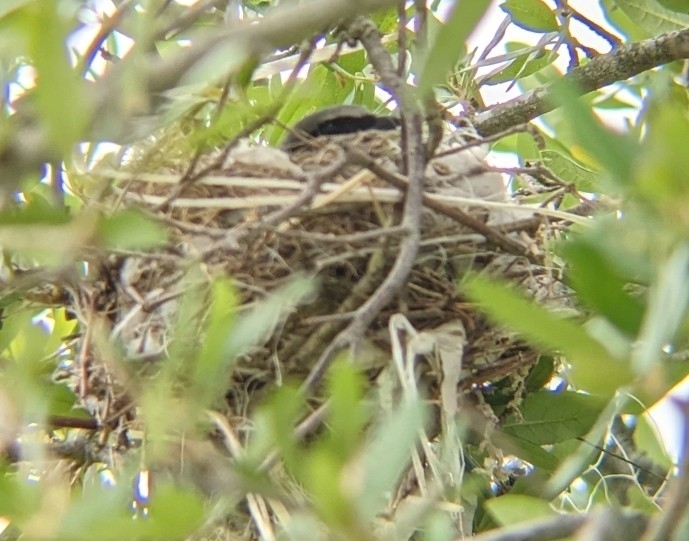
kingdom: Animalia
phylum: Chordata
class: Aves
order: Passeriformes
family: Laniidae
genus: Lanius
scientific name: Lanius ludovicianus
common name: Loggerhead shrike
